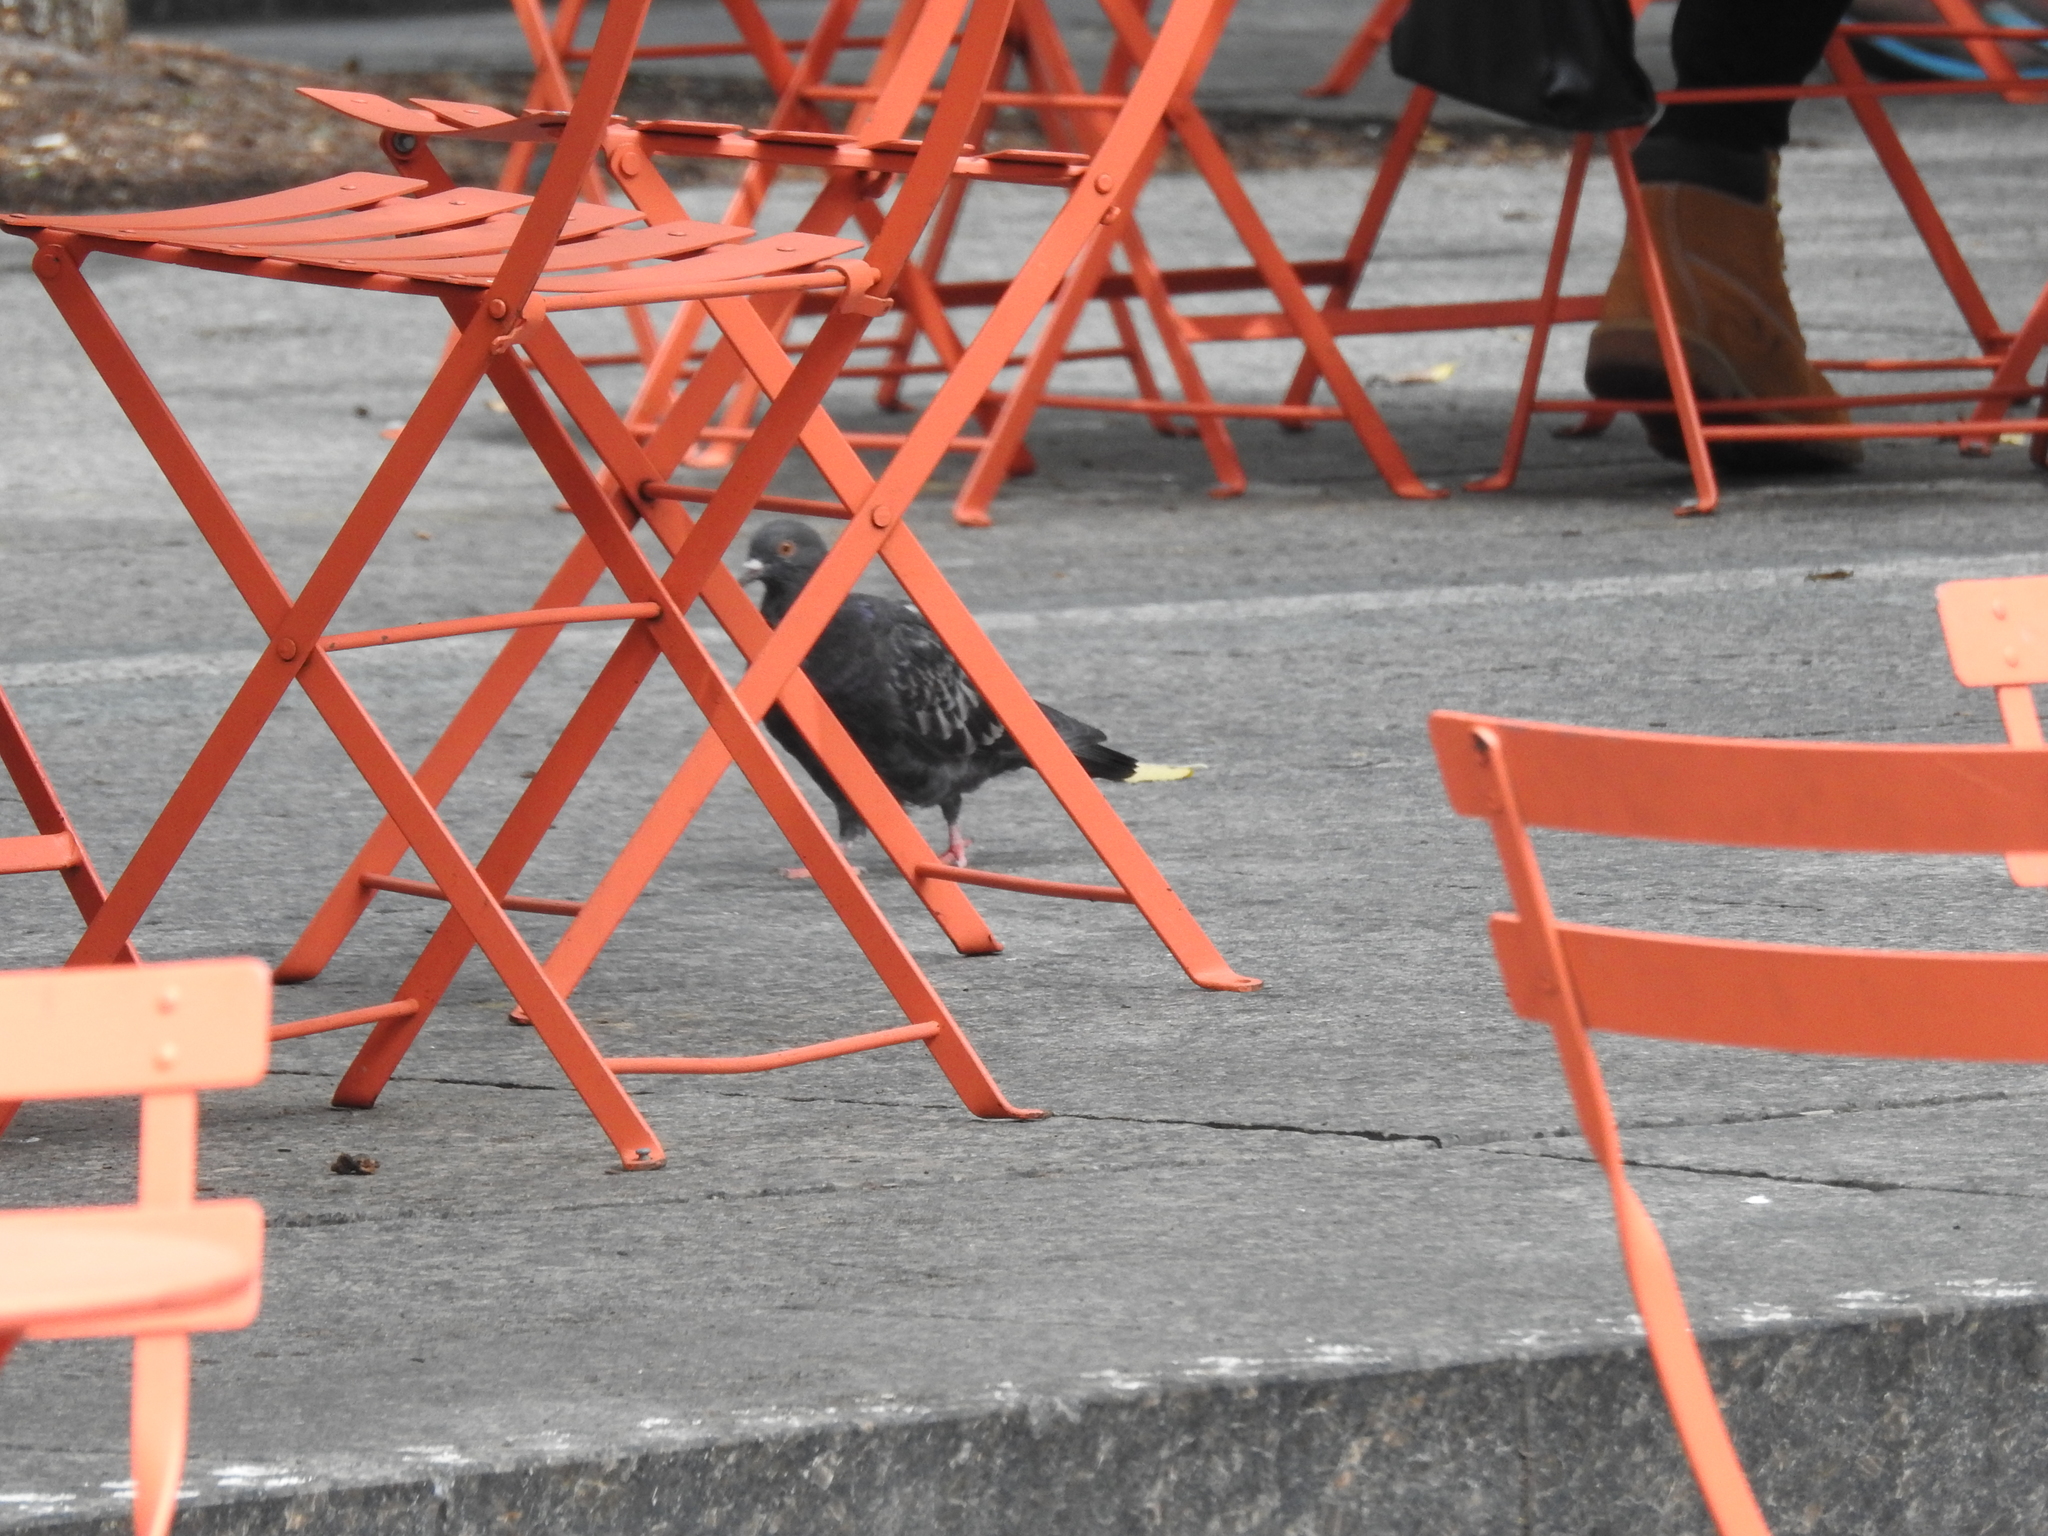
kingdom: Animalia
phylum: Chordata
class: Aves
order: Columbiformes
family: Columbidae
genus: Columba
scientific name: Columba livia
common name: Rock pigeon
